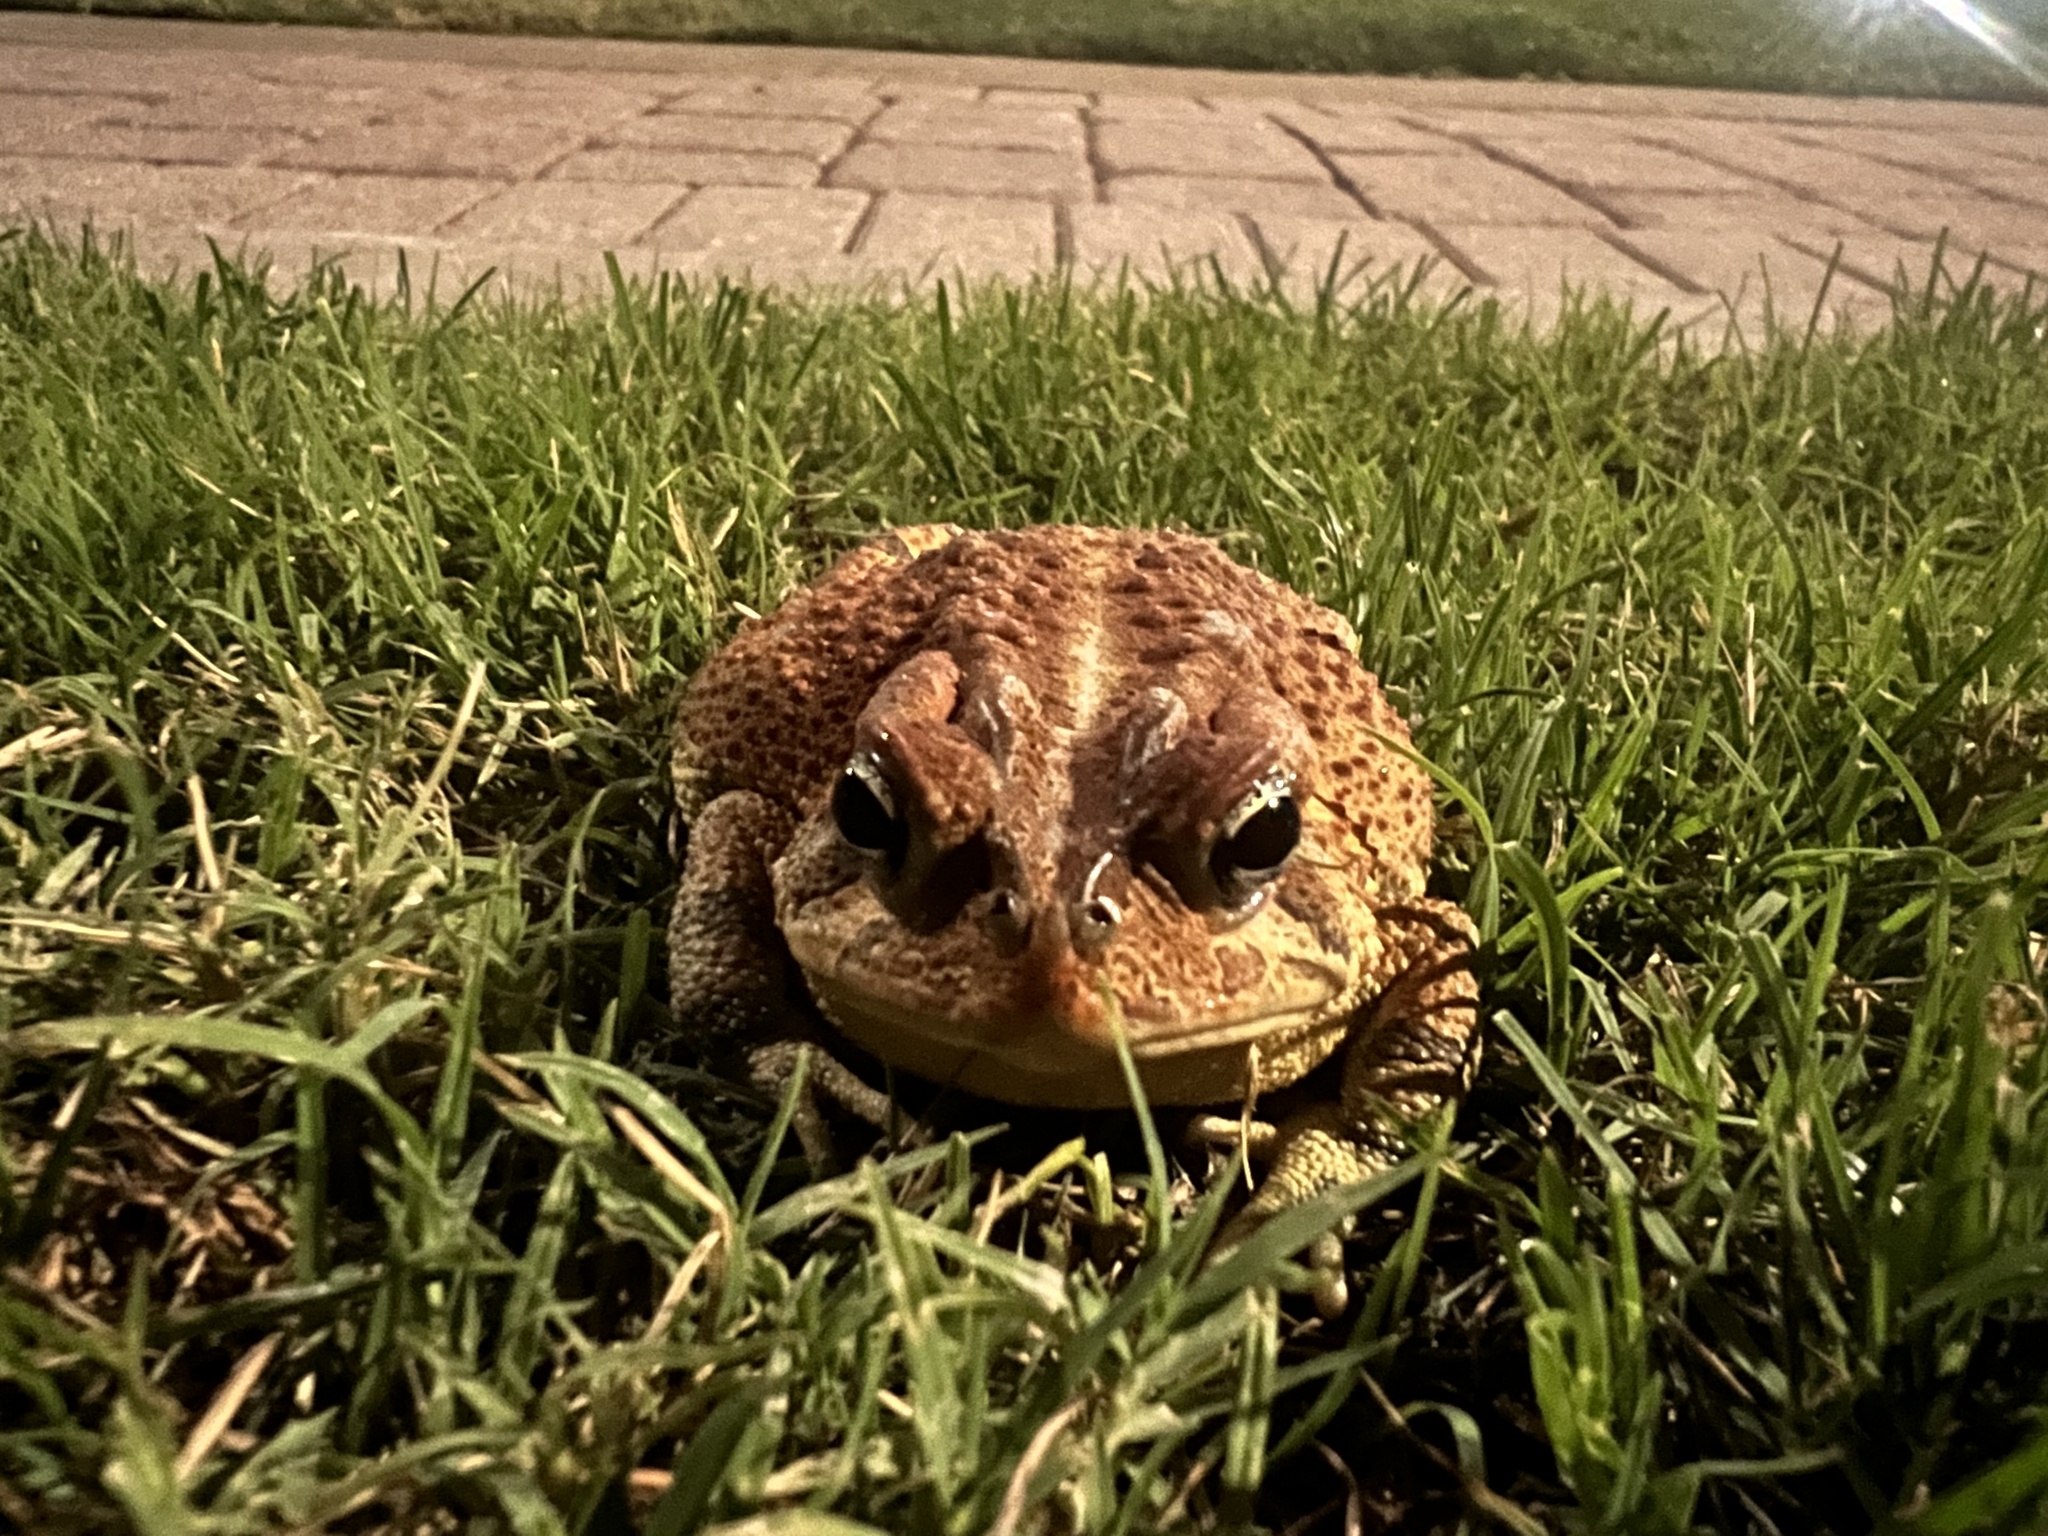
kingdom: Animalia
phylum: Chordata
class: Amphibia
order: Anura
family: Bufonidae
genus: Anaxyrus
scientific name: Anaxyrus terrestris
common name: Southern toad
